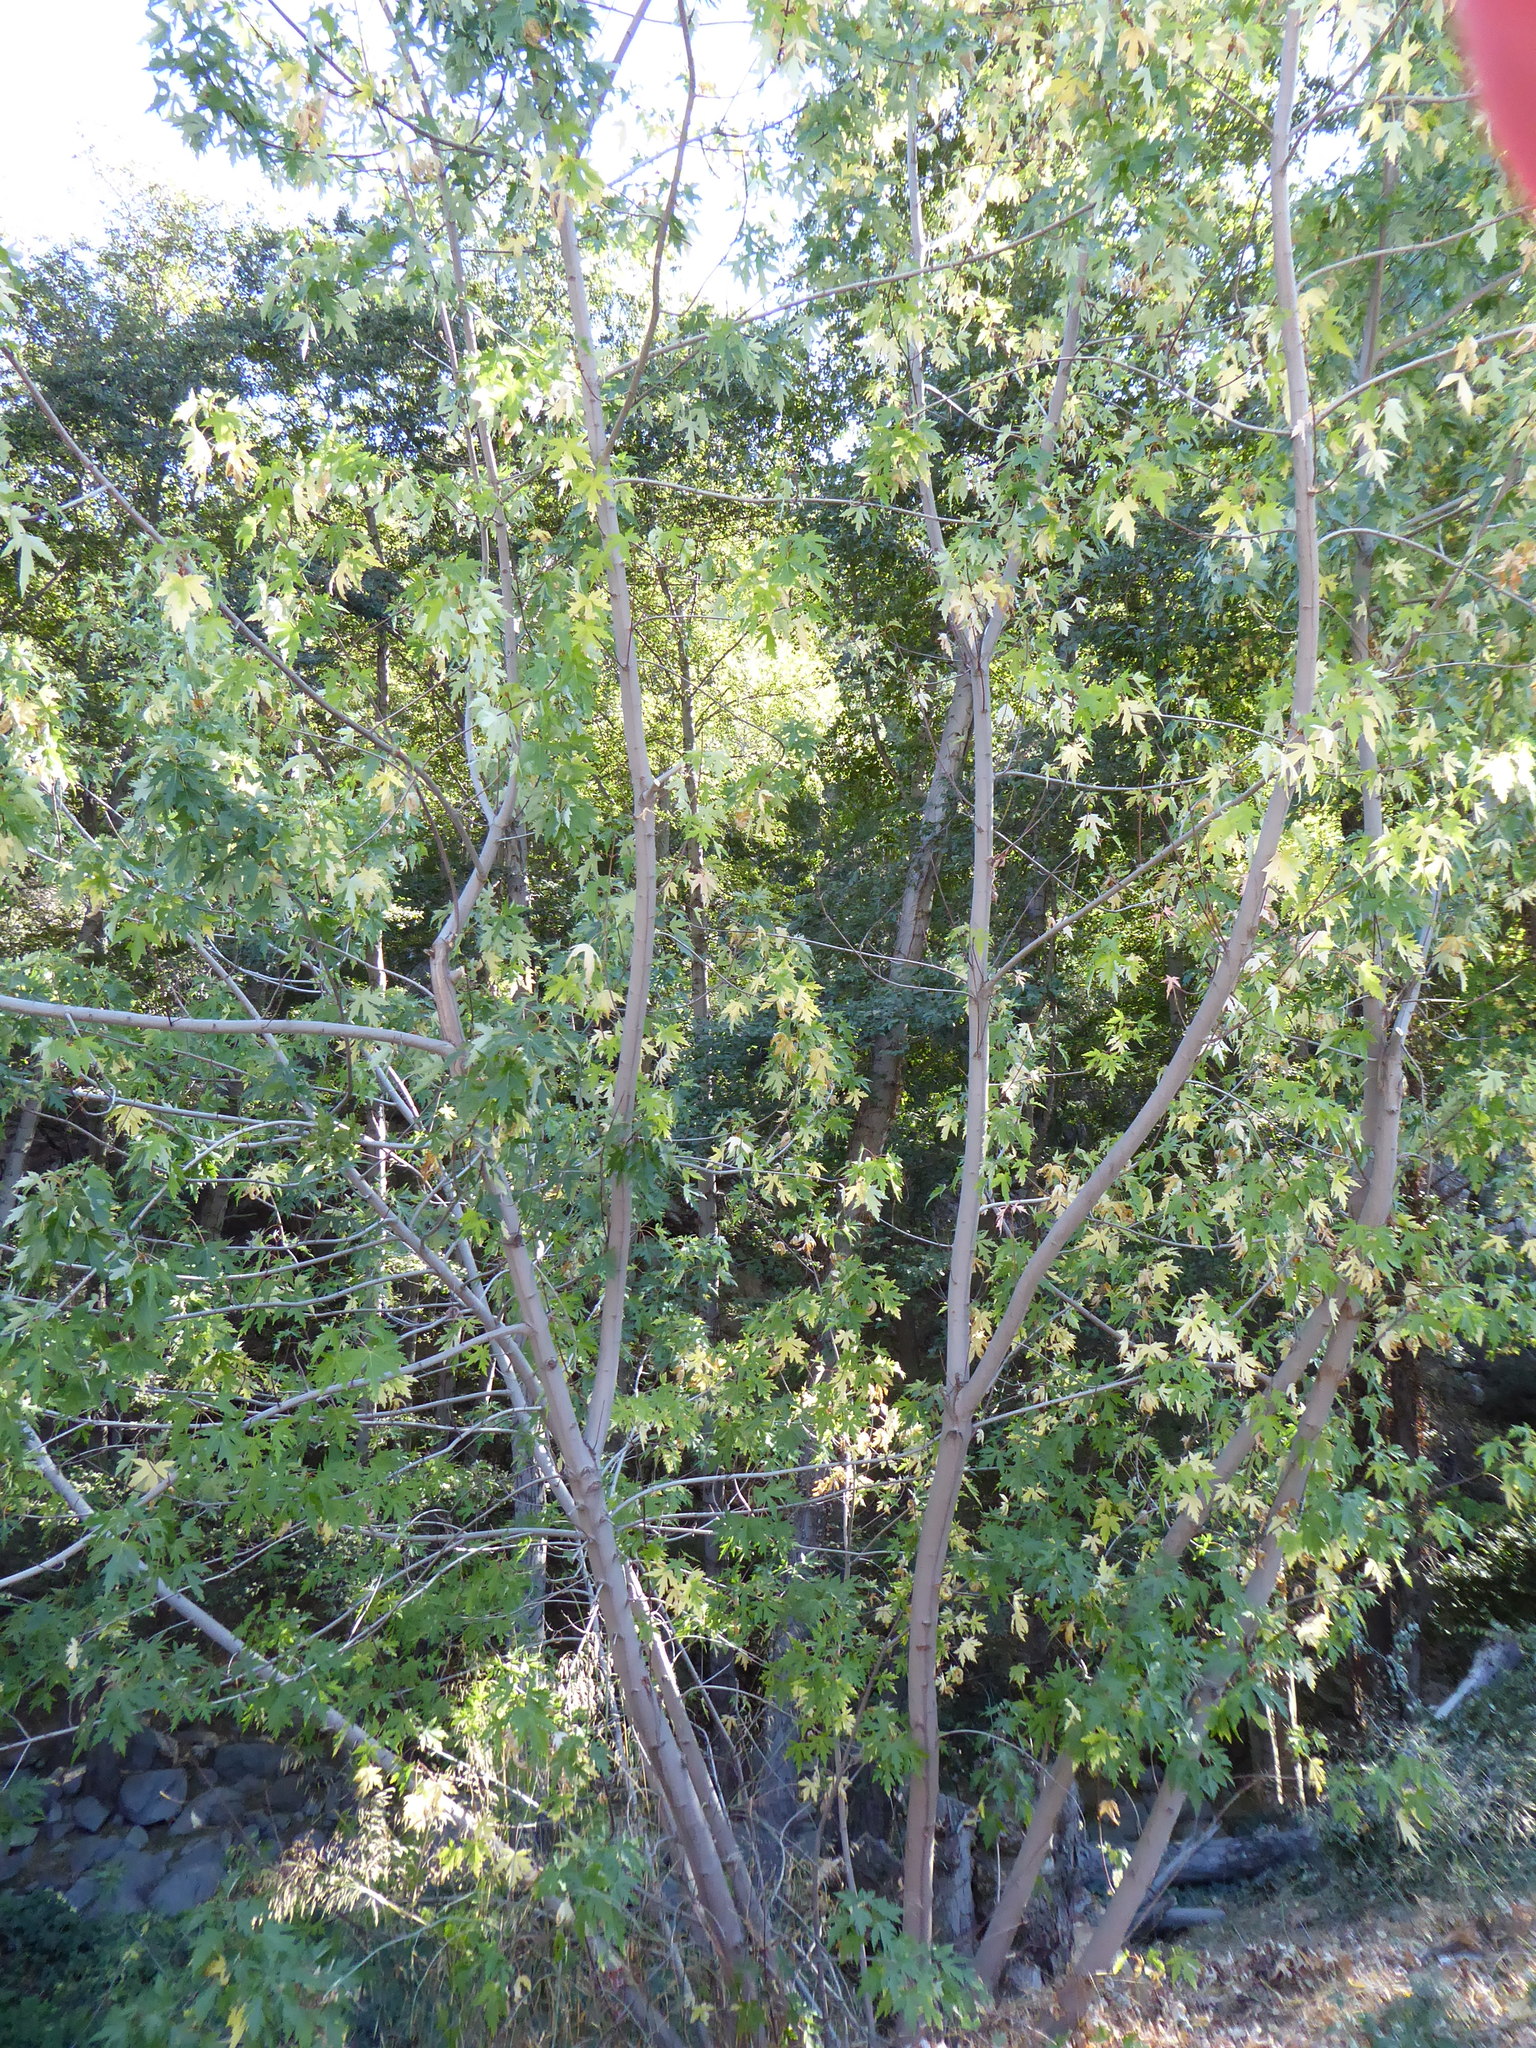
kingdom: Plantae
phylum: Tracheophyta
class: Magnoliopsida
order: Sapindales
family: Sapindaceae
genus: Acer
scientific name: Acer saccharinum
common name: Silver maple
